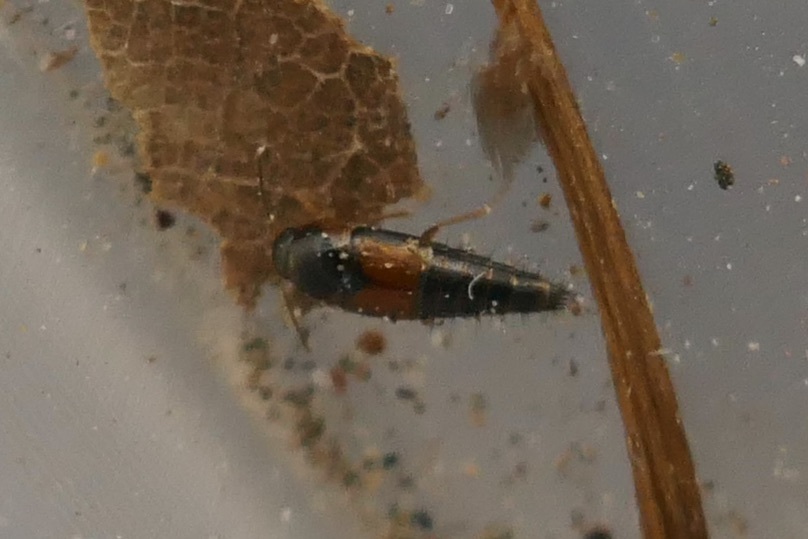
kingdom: Animalia
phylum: Arthropoda
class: Insecta
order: Coleoptera
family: Staphylinidae
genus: Tachyporus
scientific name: Tachyporus hypnorum
